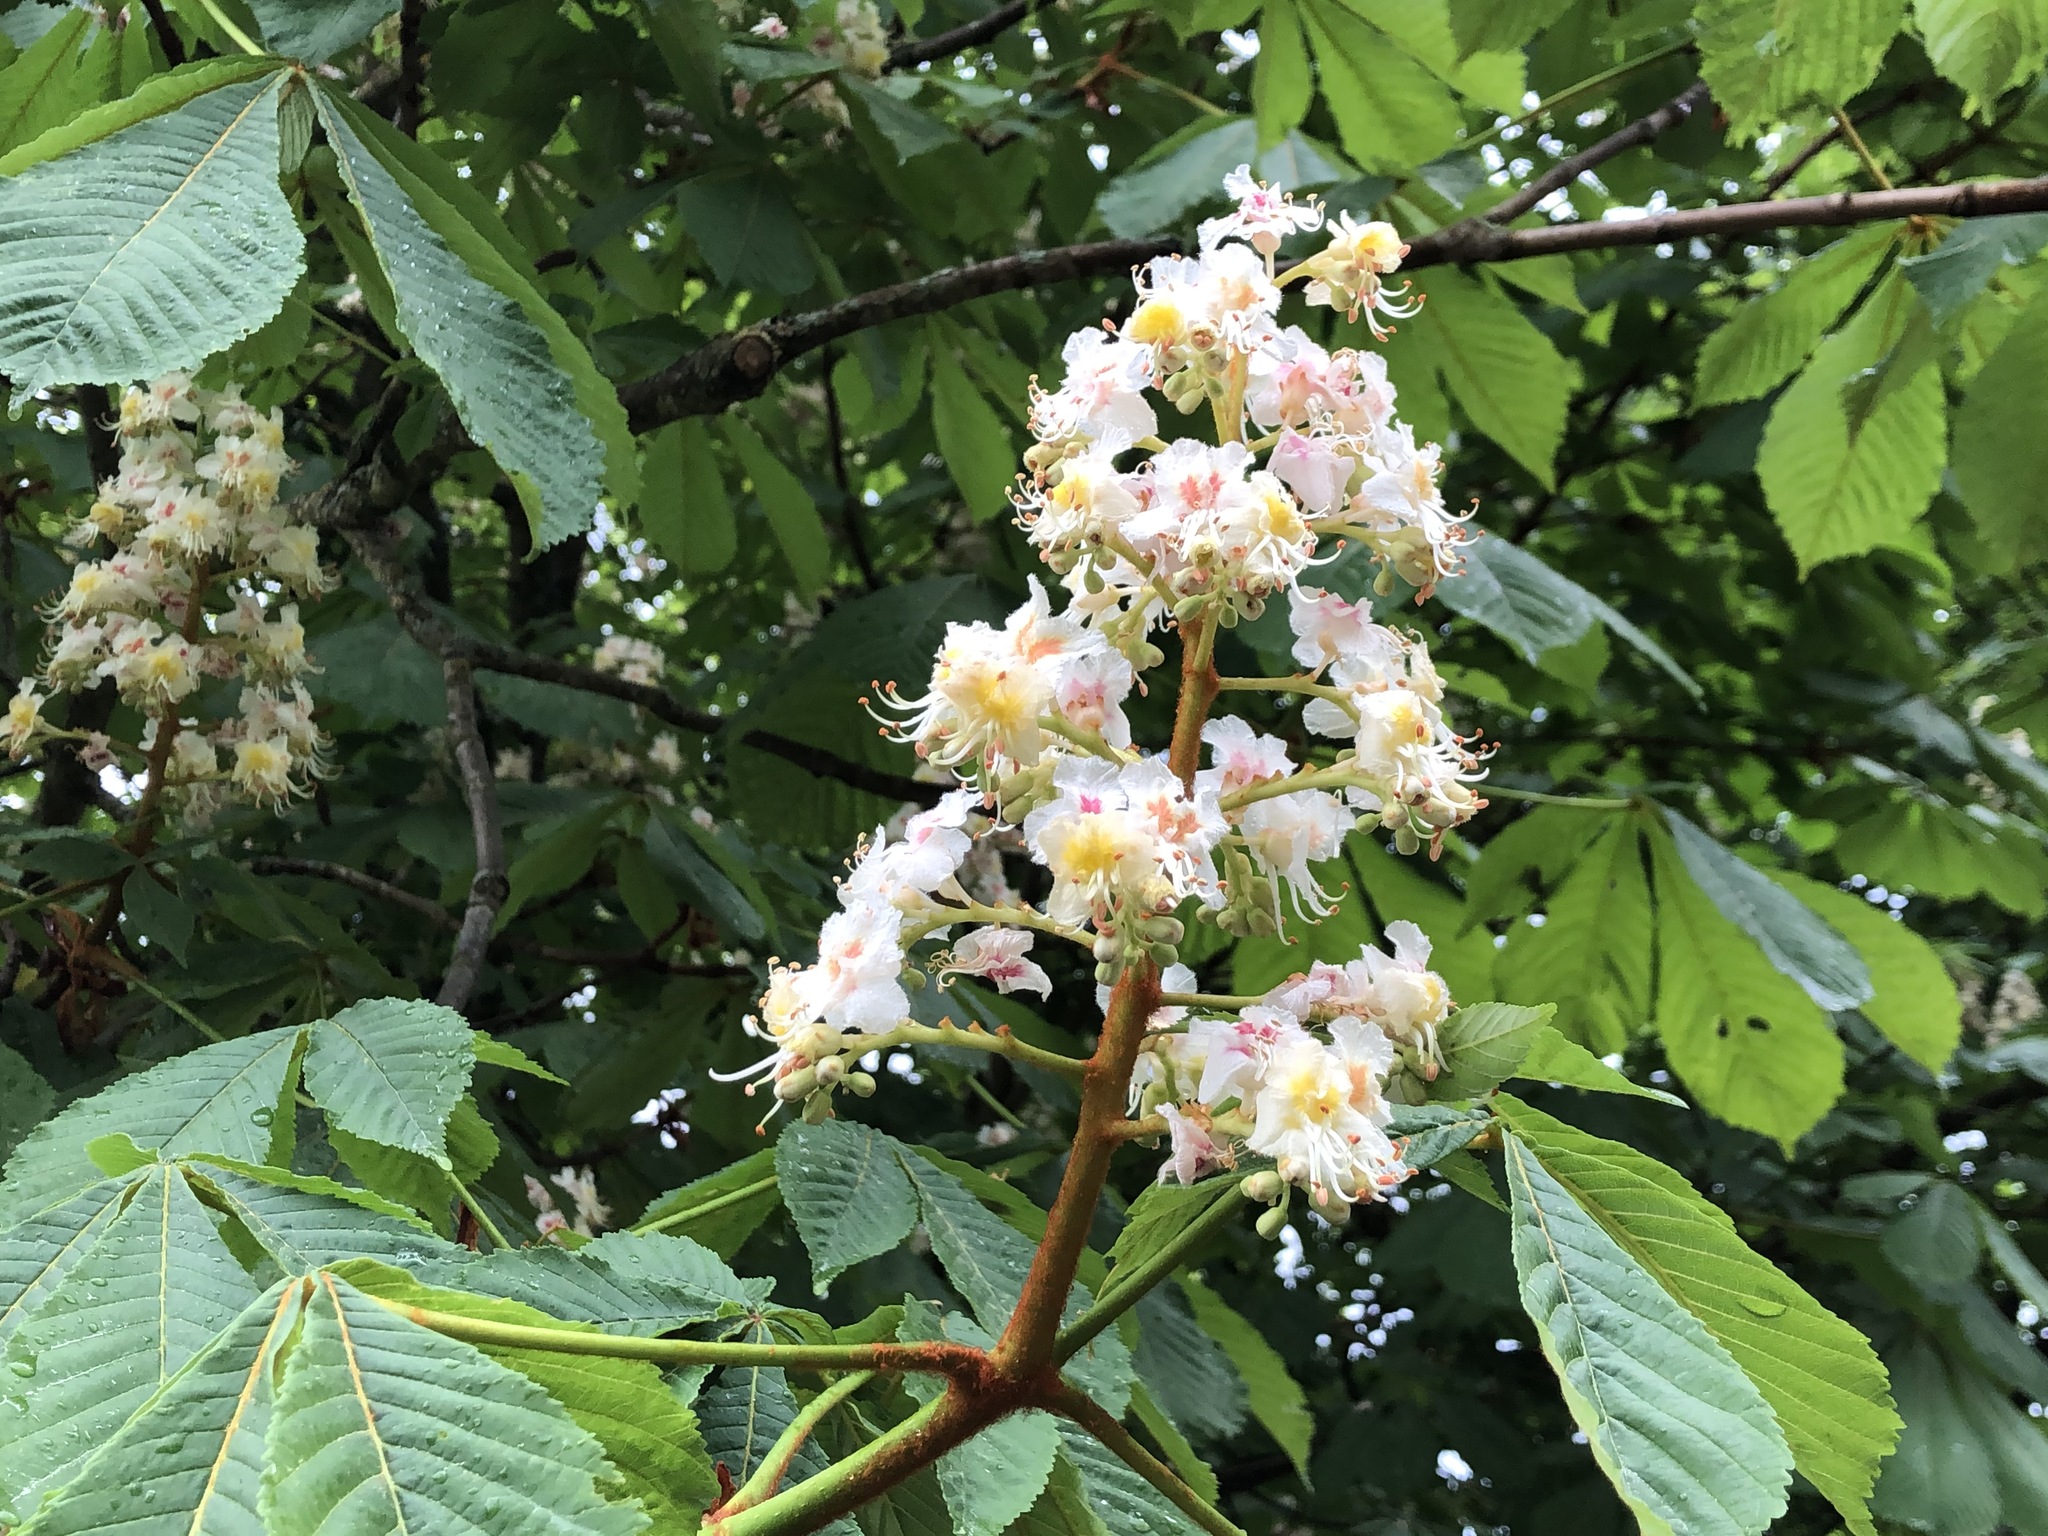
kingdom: Plantae
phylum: Tracheophyta
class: Magnoliopsida
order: Sapindales
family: Sapindaceae
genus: Aesculus
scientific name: Aesculus hippocastanum
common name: Horse-chestnut
